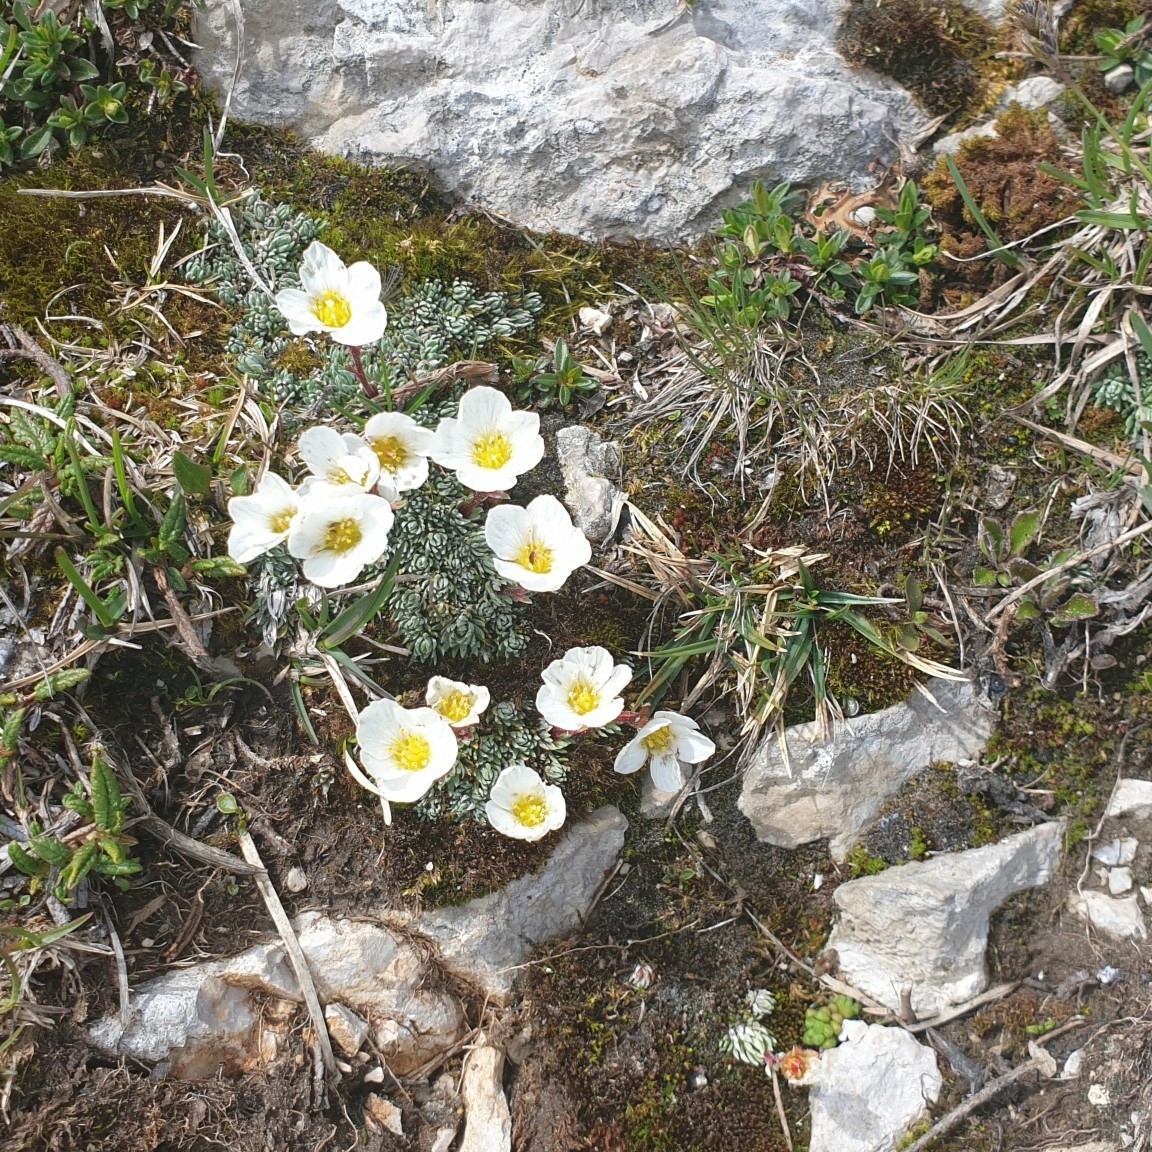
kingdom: Plantae
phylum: Tracheophyta
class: Magnoliopsida
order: Saxifragales
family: Saxifragaceae
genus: Saxifraga
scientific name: Saxifraga burseriana
